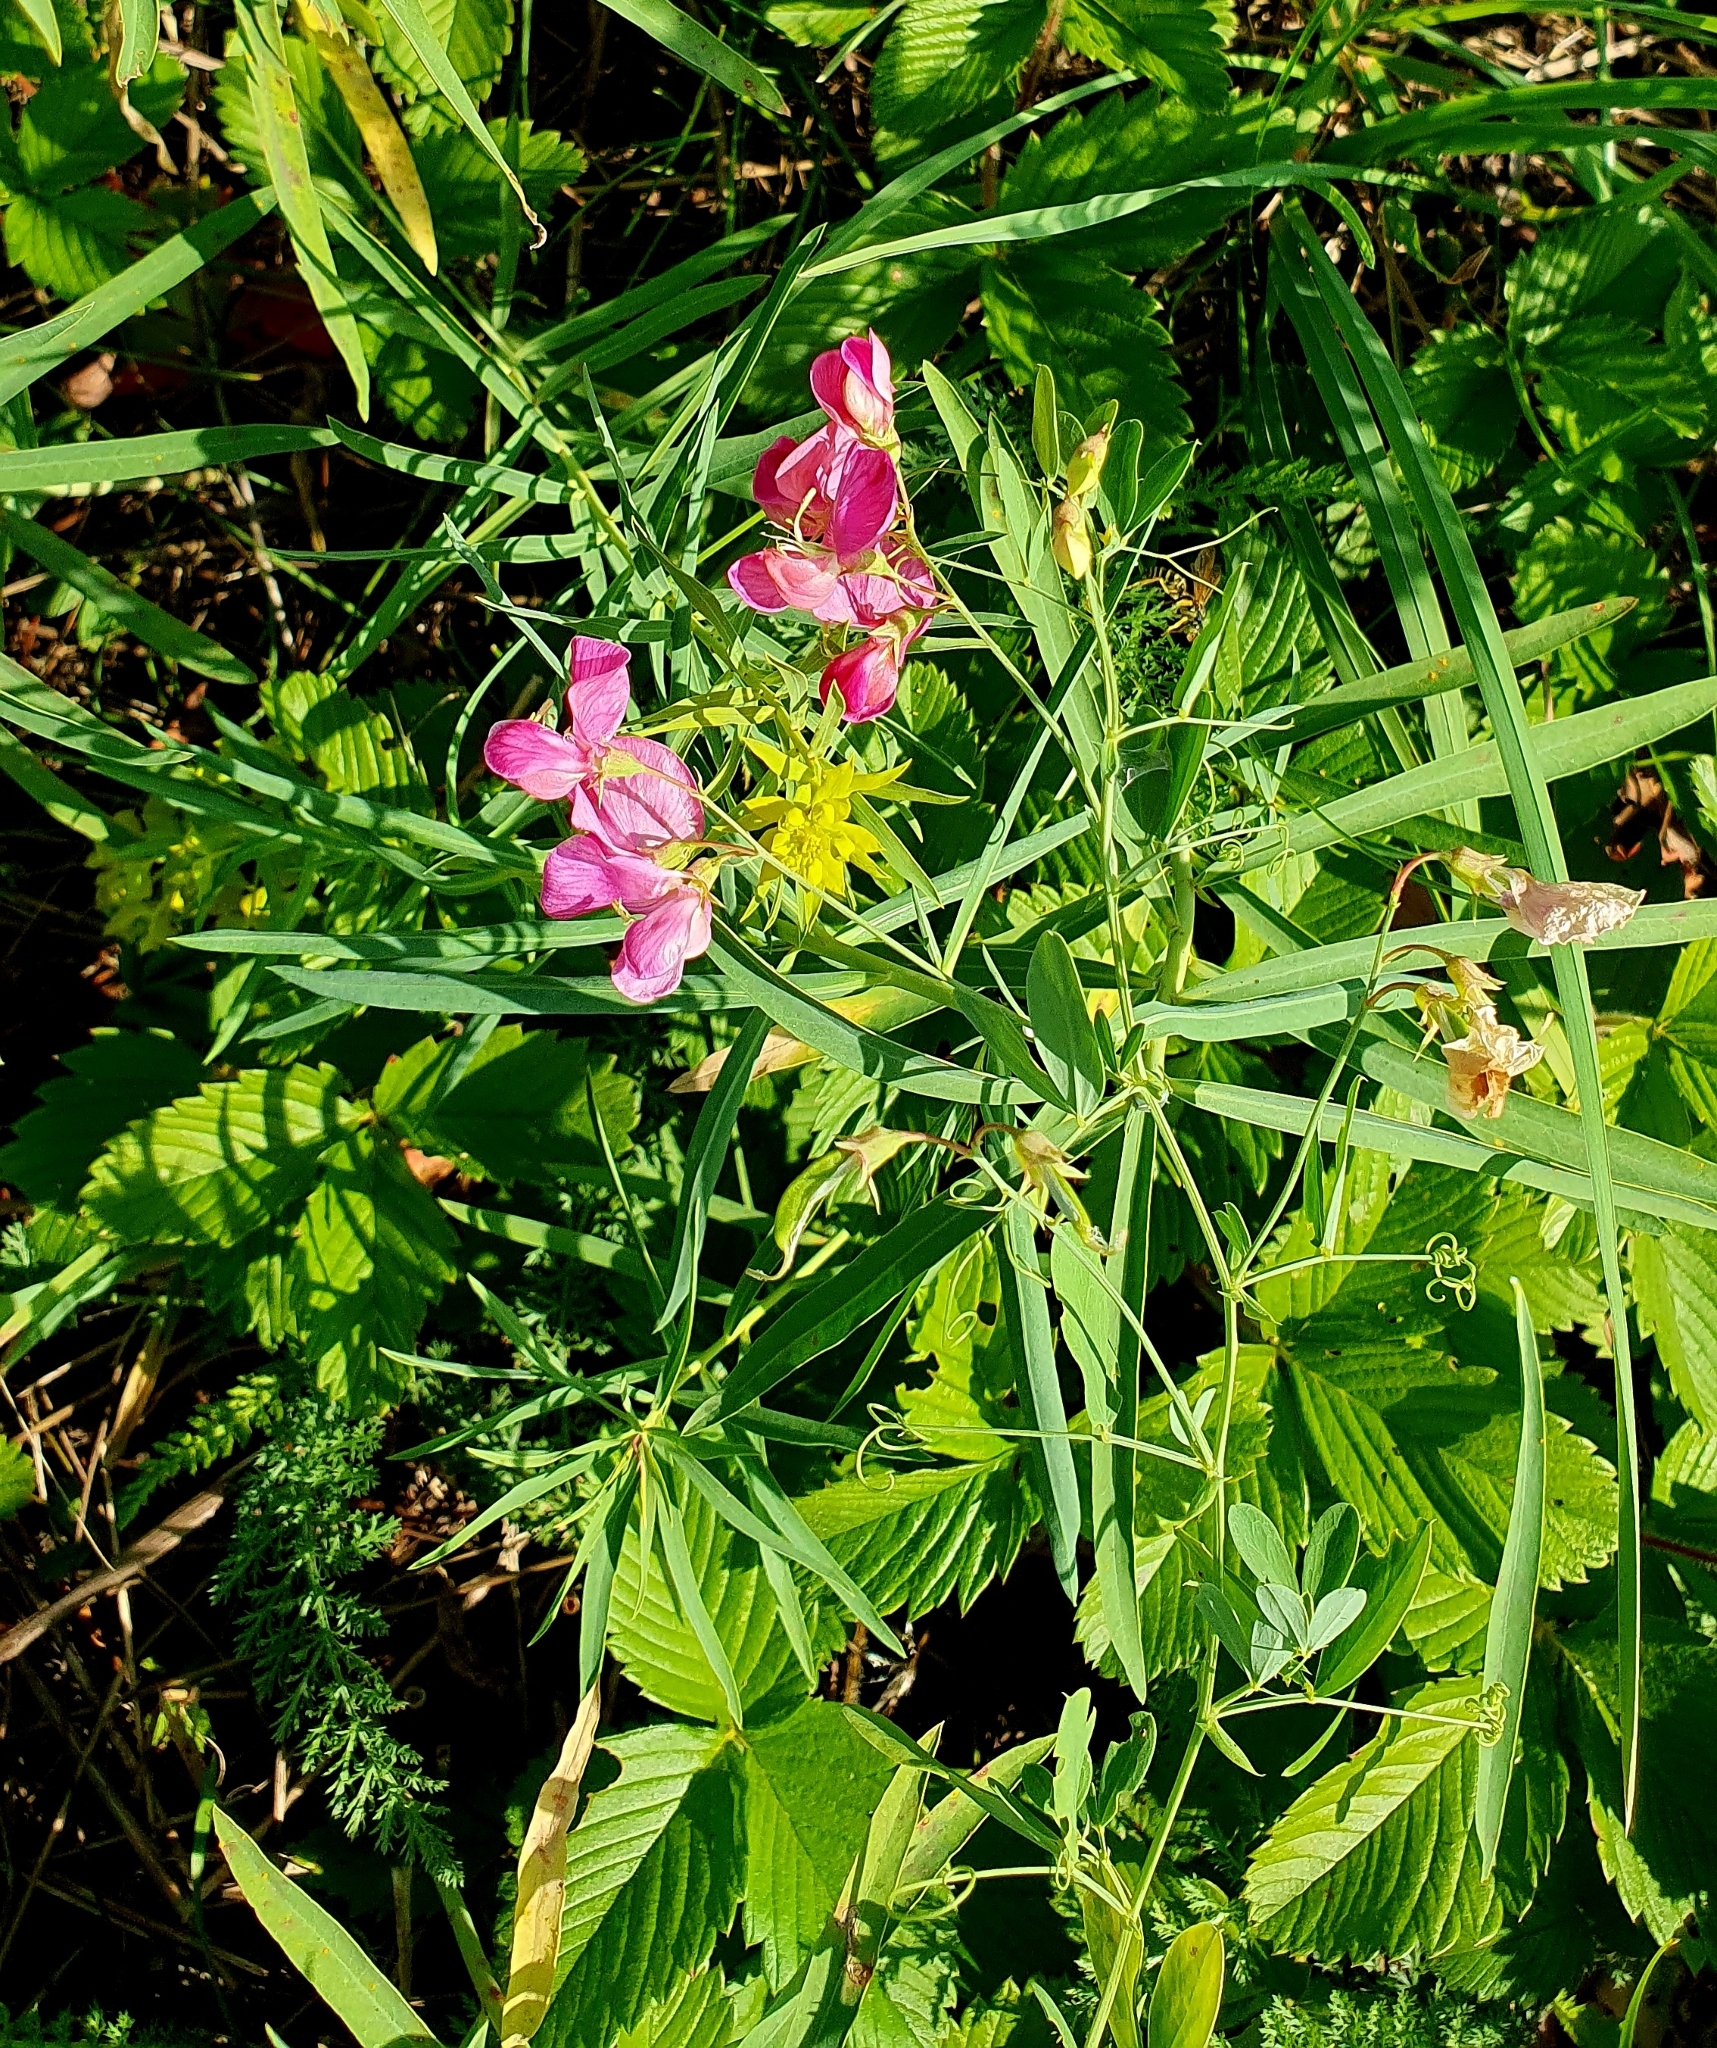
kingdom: Plantae
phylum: Tracheophyta
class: Magnoliopsida
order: Fabales
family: Fabaceae
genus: Lathyrus
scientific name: Lathyrus tuberosus
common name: Tuberous pea
